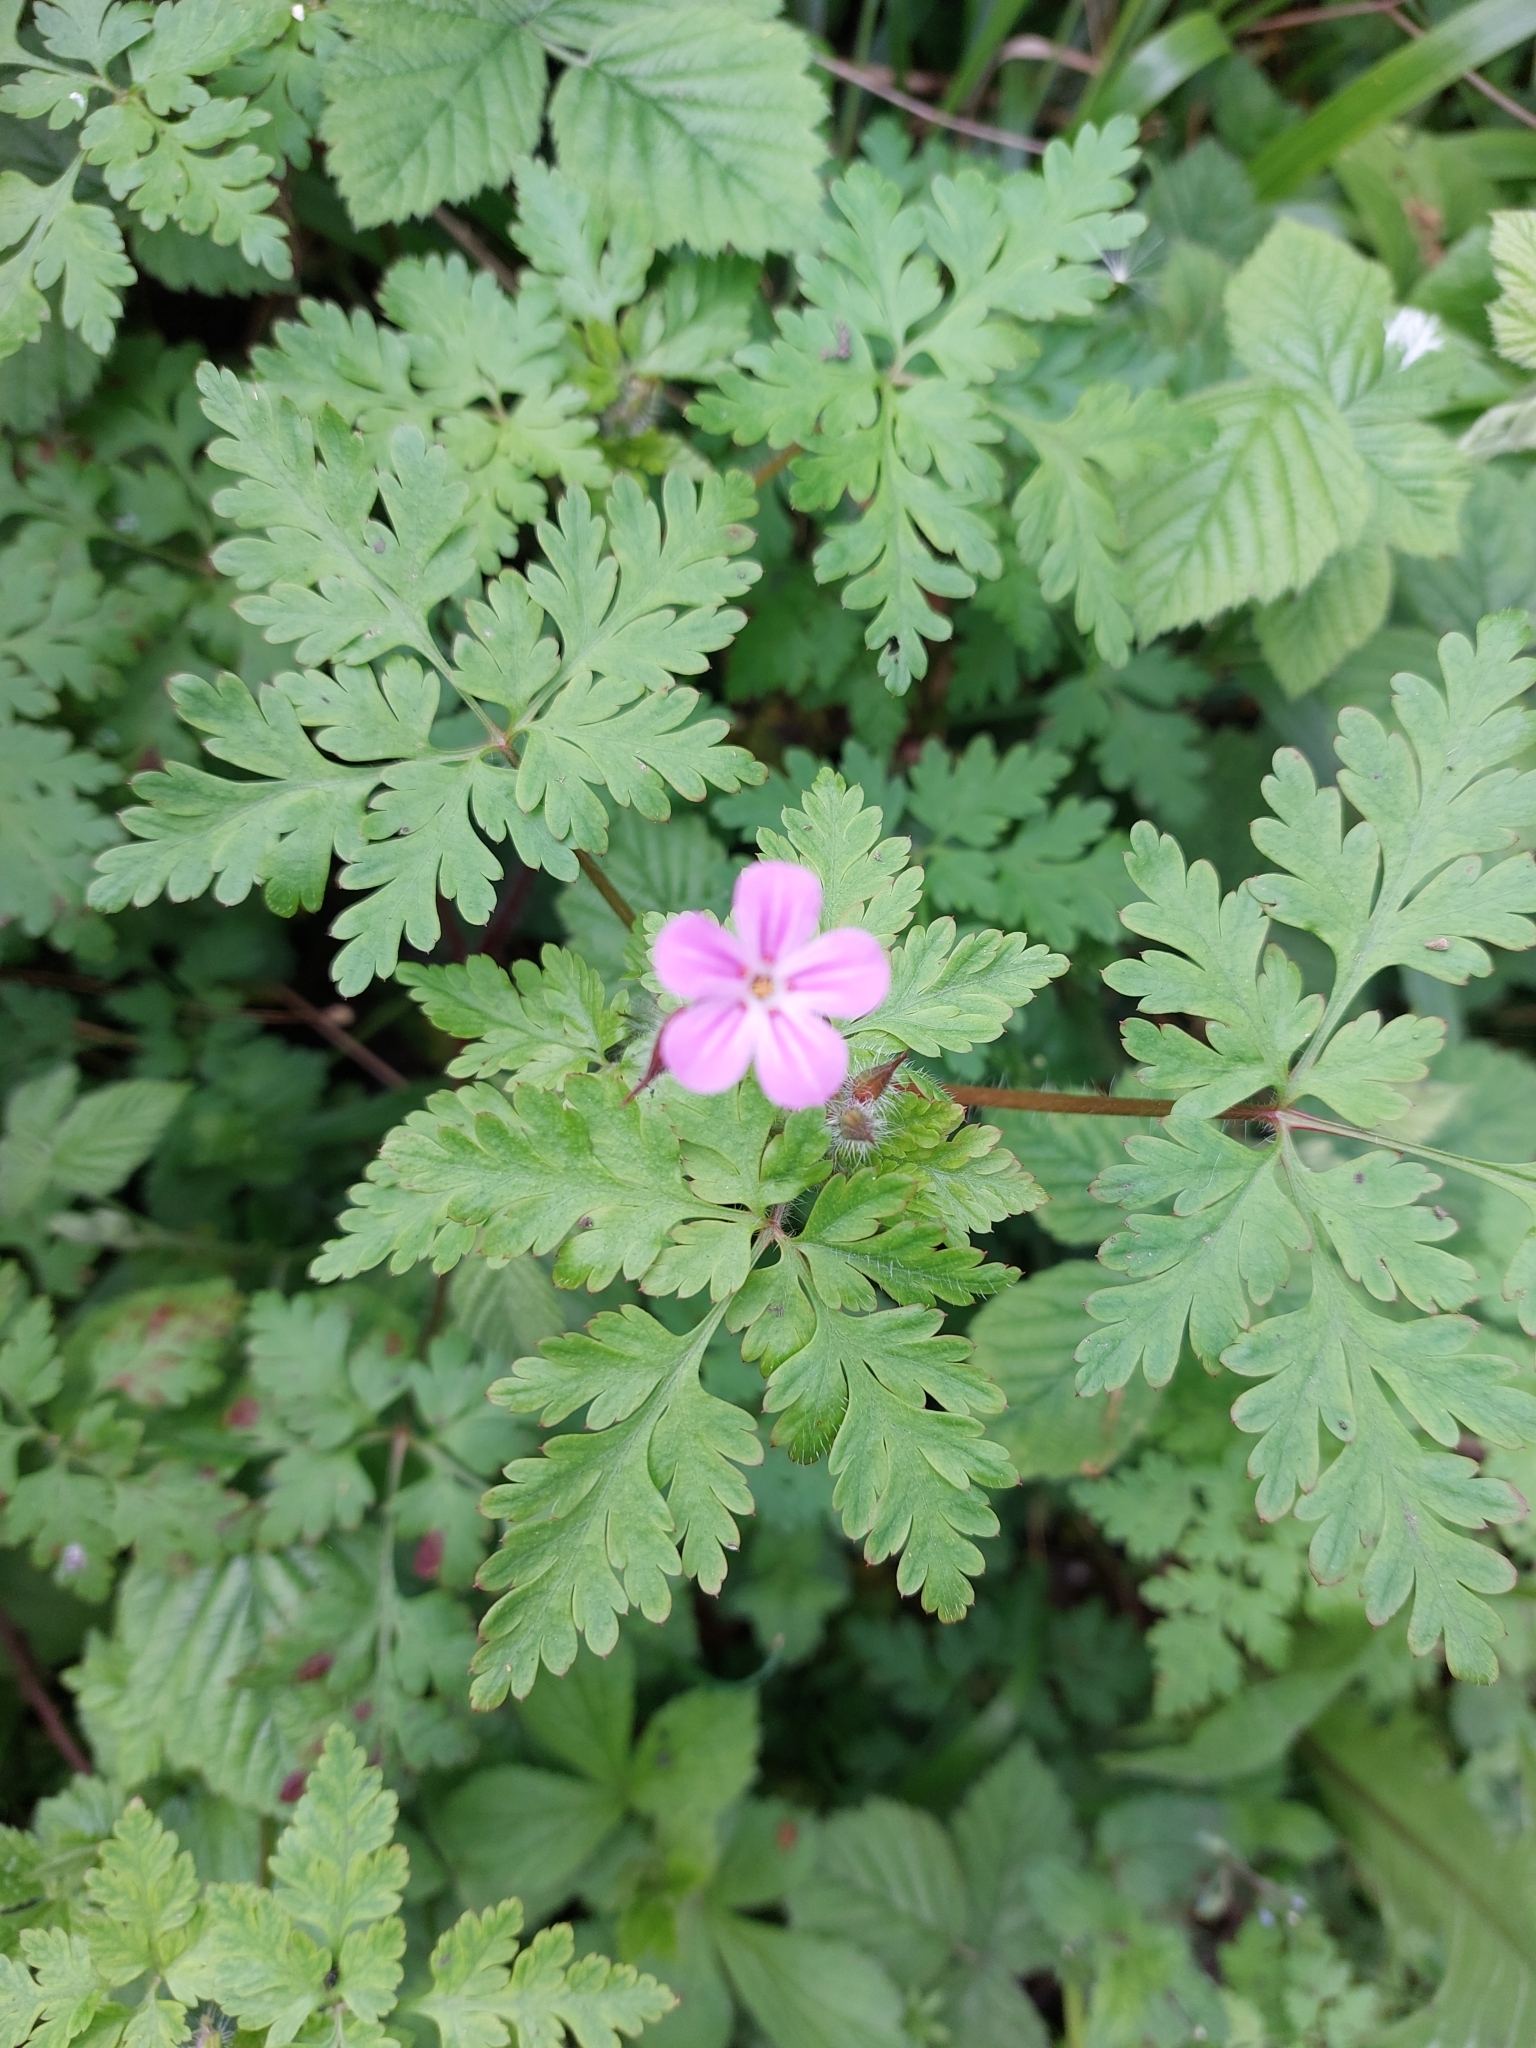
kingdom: Plantae
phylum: Tracheophyta
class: Magnoliopsida
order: Geraniales
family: Geraniaceae
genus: Geranium
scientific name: Geranium robertianum
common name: Herb-robert
